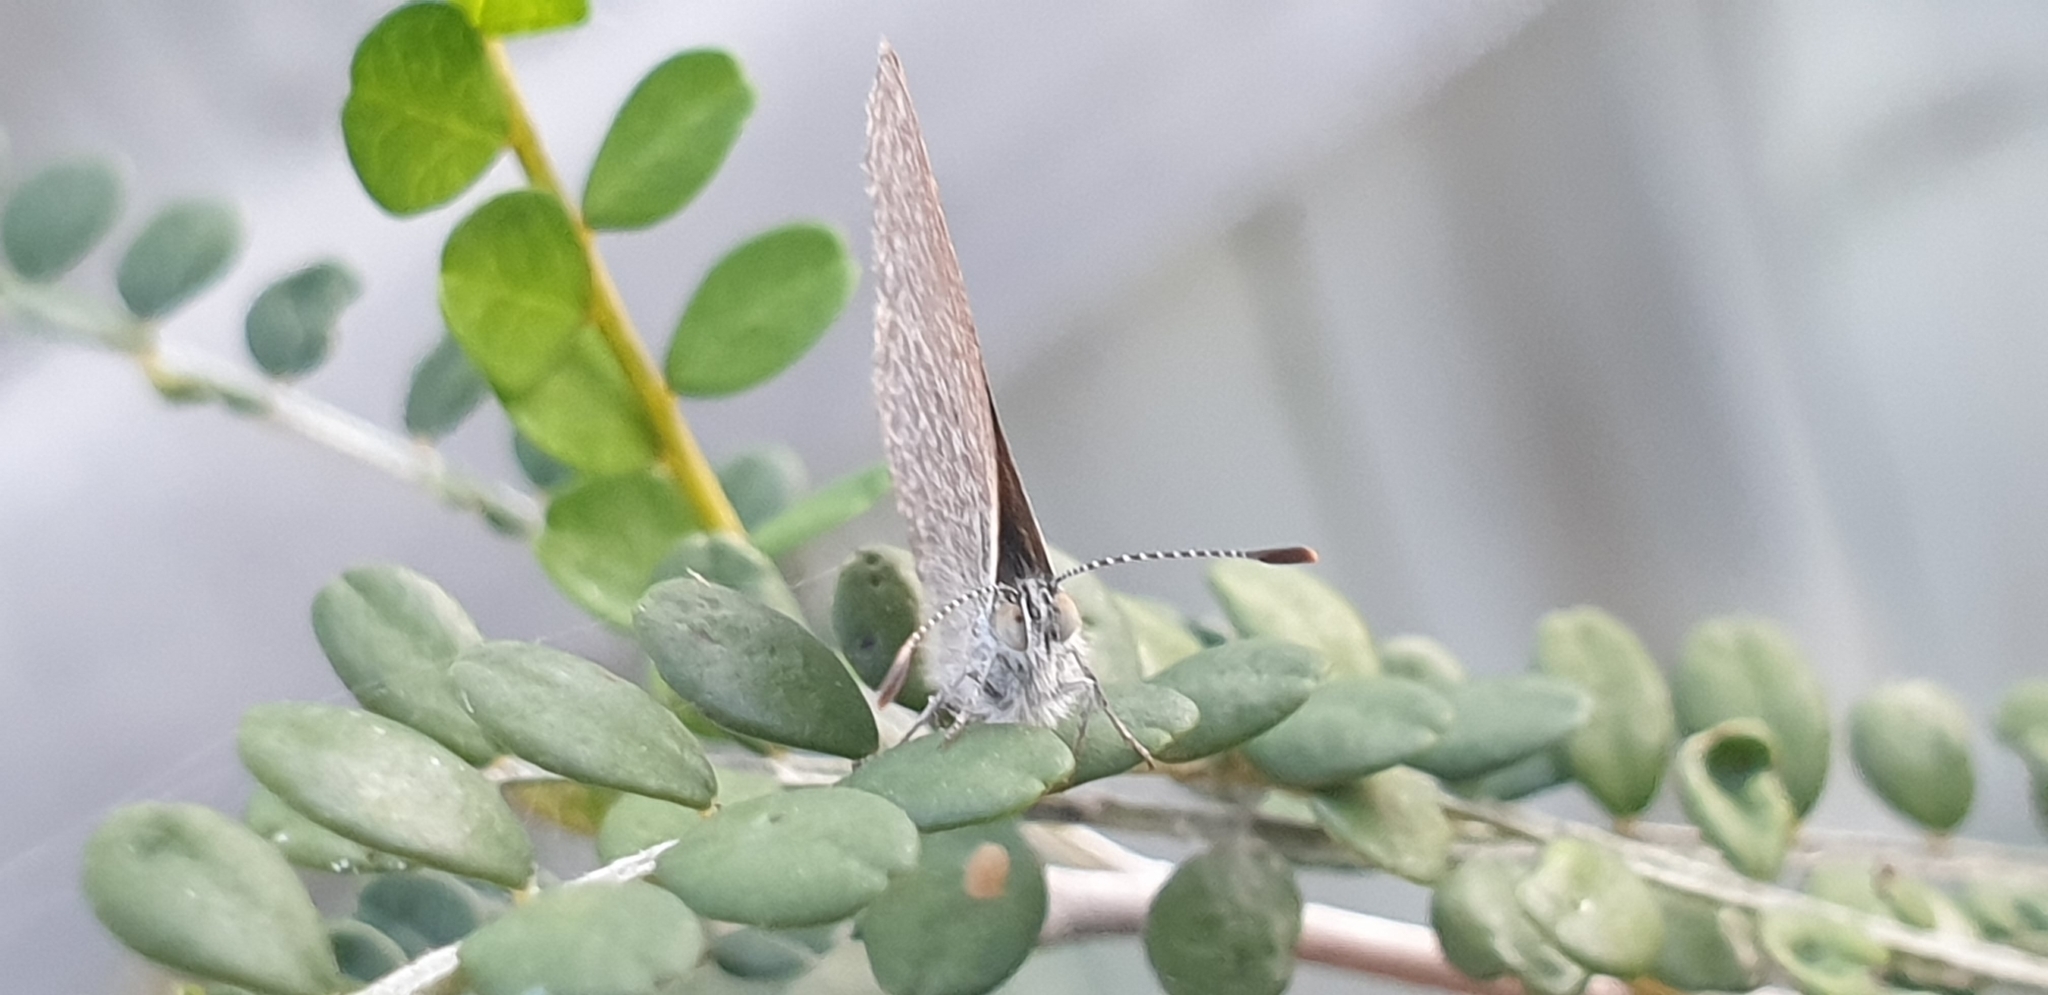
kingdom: Animalia
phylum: Arthropoda
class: Insecta
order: Lepidoptera
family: Lycaenidae
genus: Zizina
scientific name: Zizina labradus
